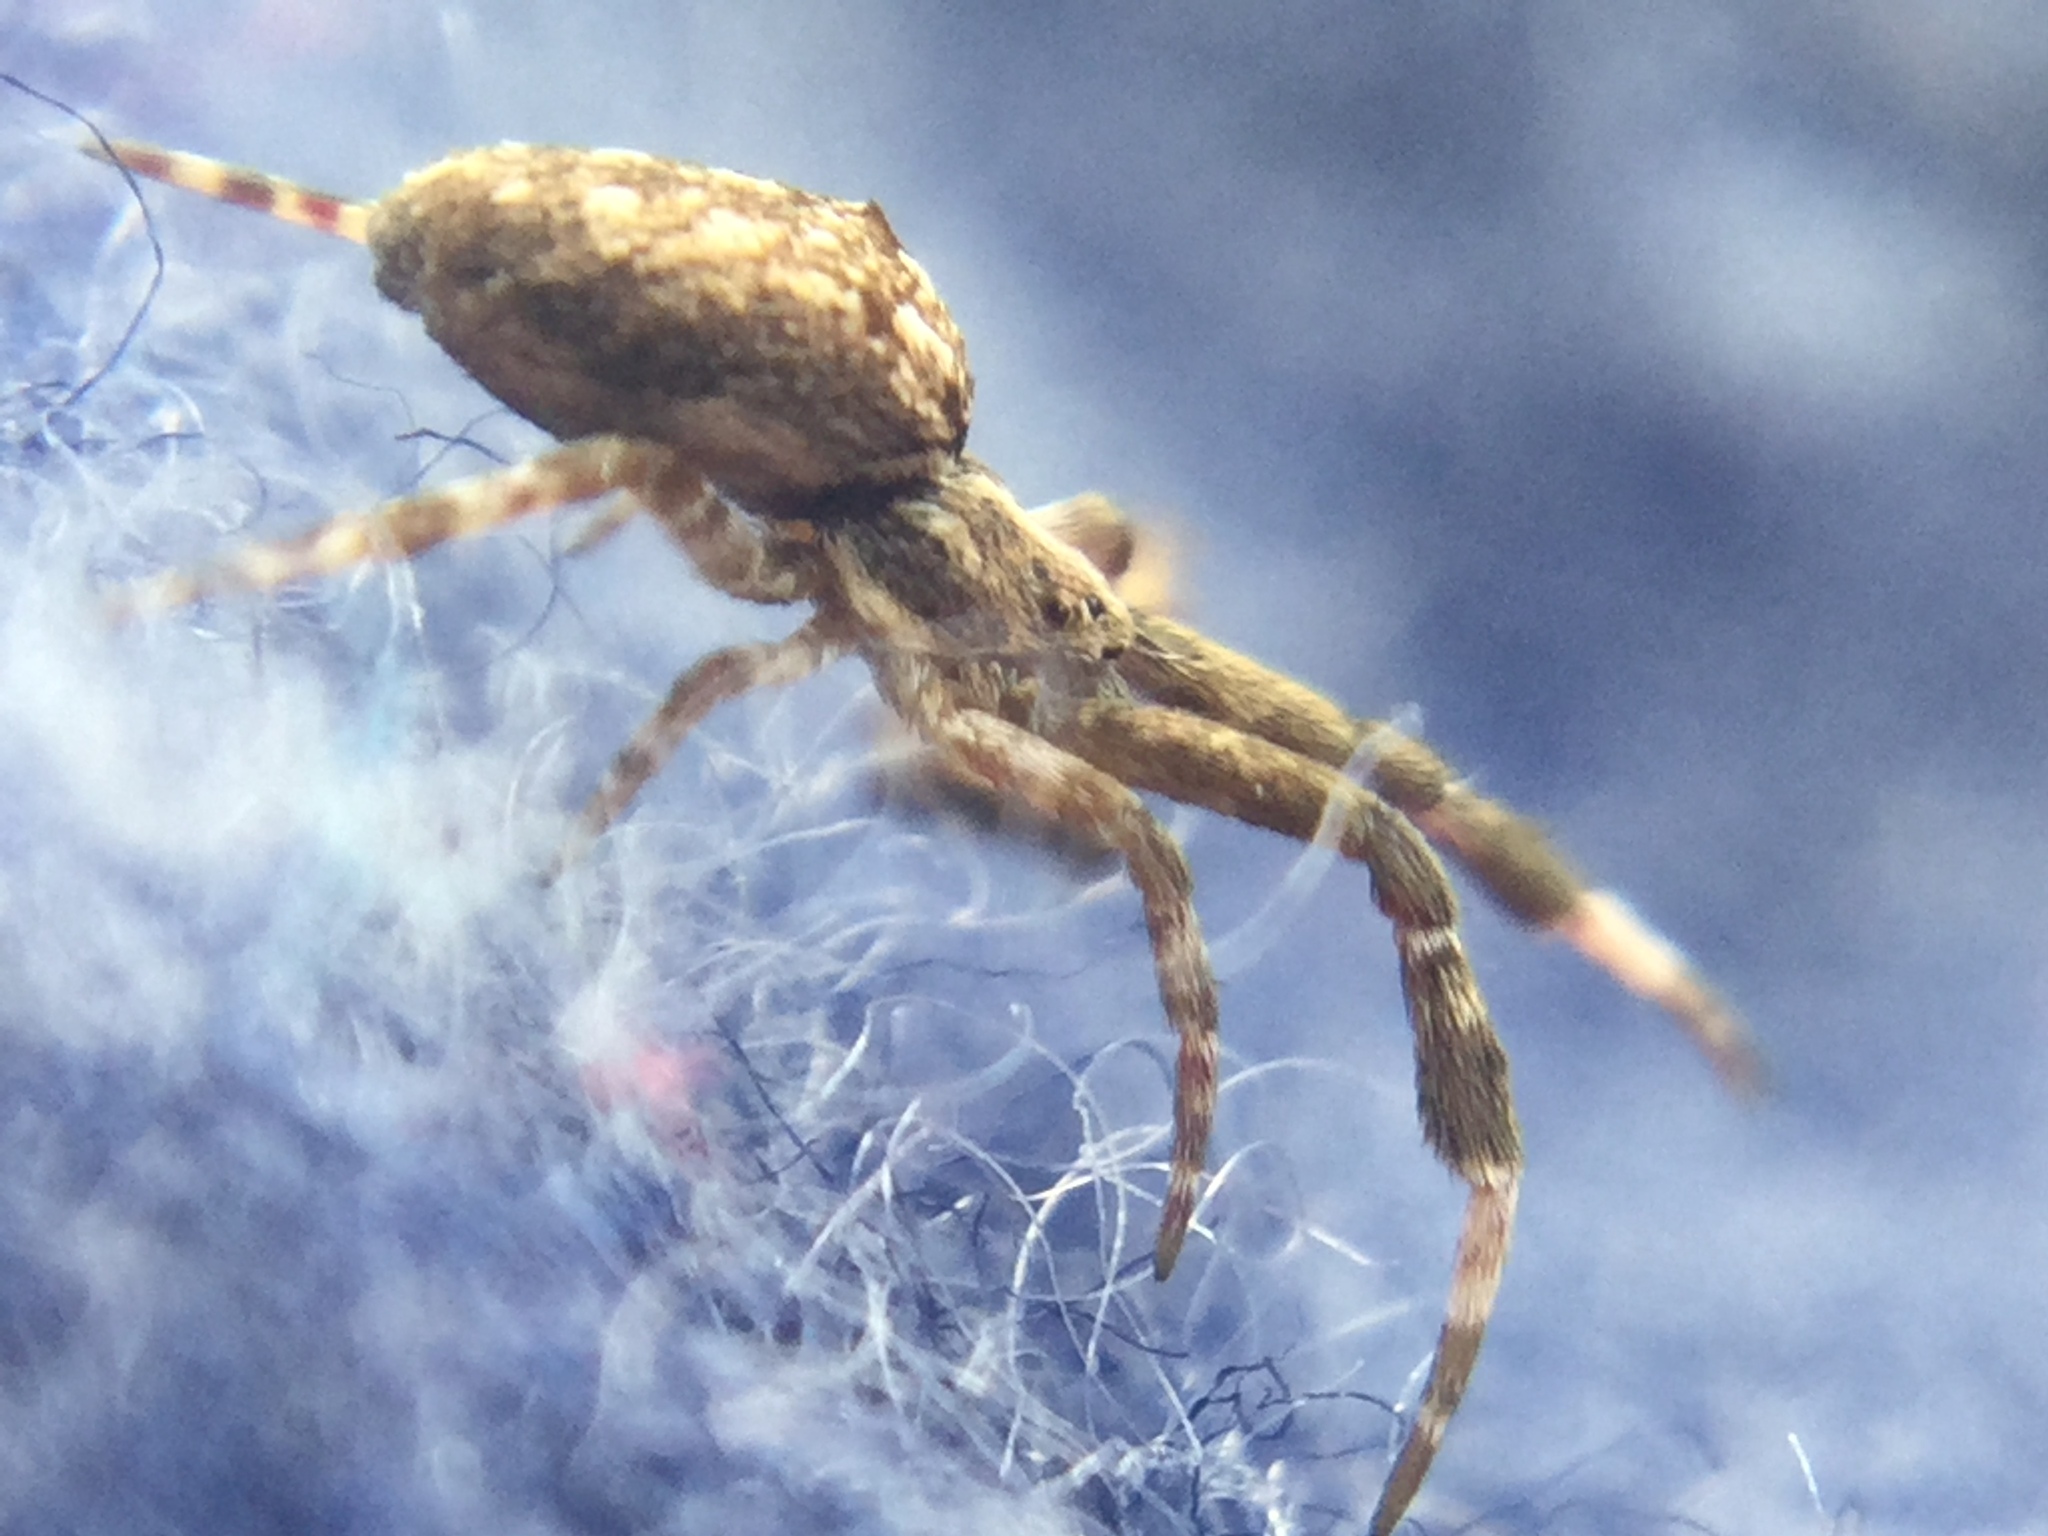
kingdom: Animalia
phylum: Arthropoda
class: Arachnida
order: Araneae
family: Uloboridae
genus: Uloborus
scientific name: Uloborus glomosus
